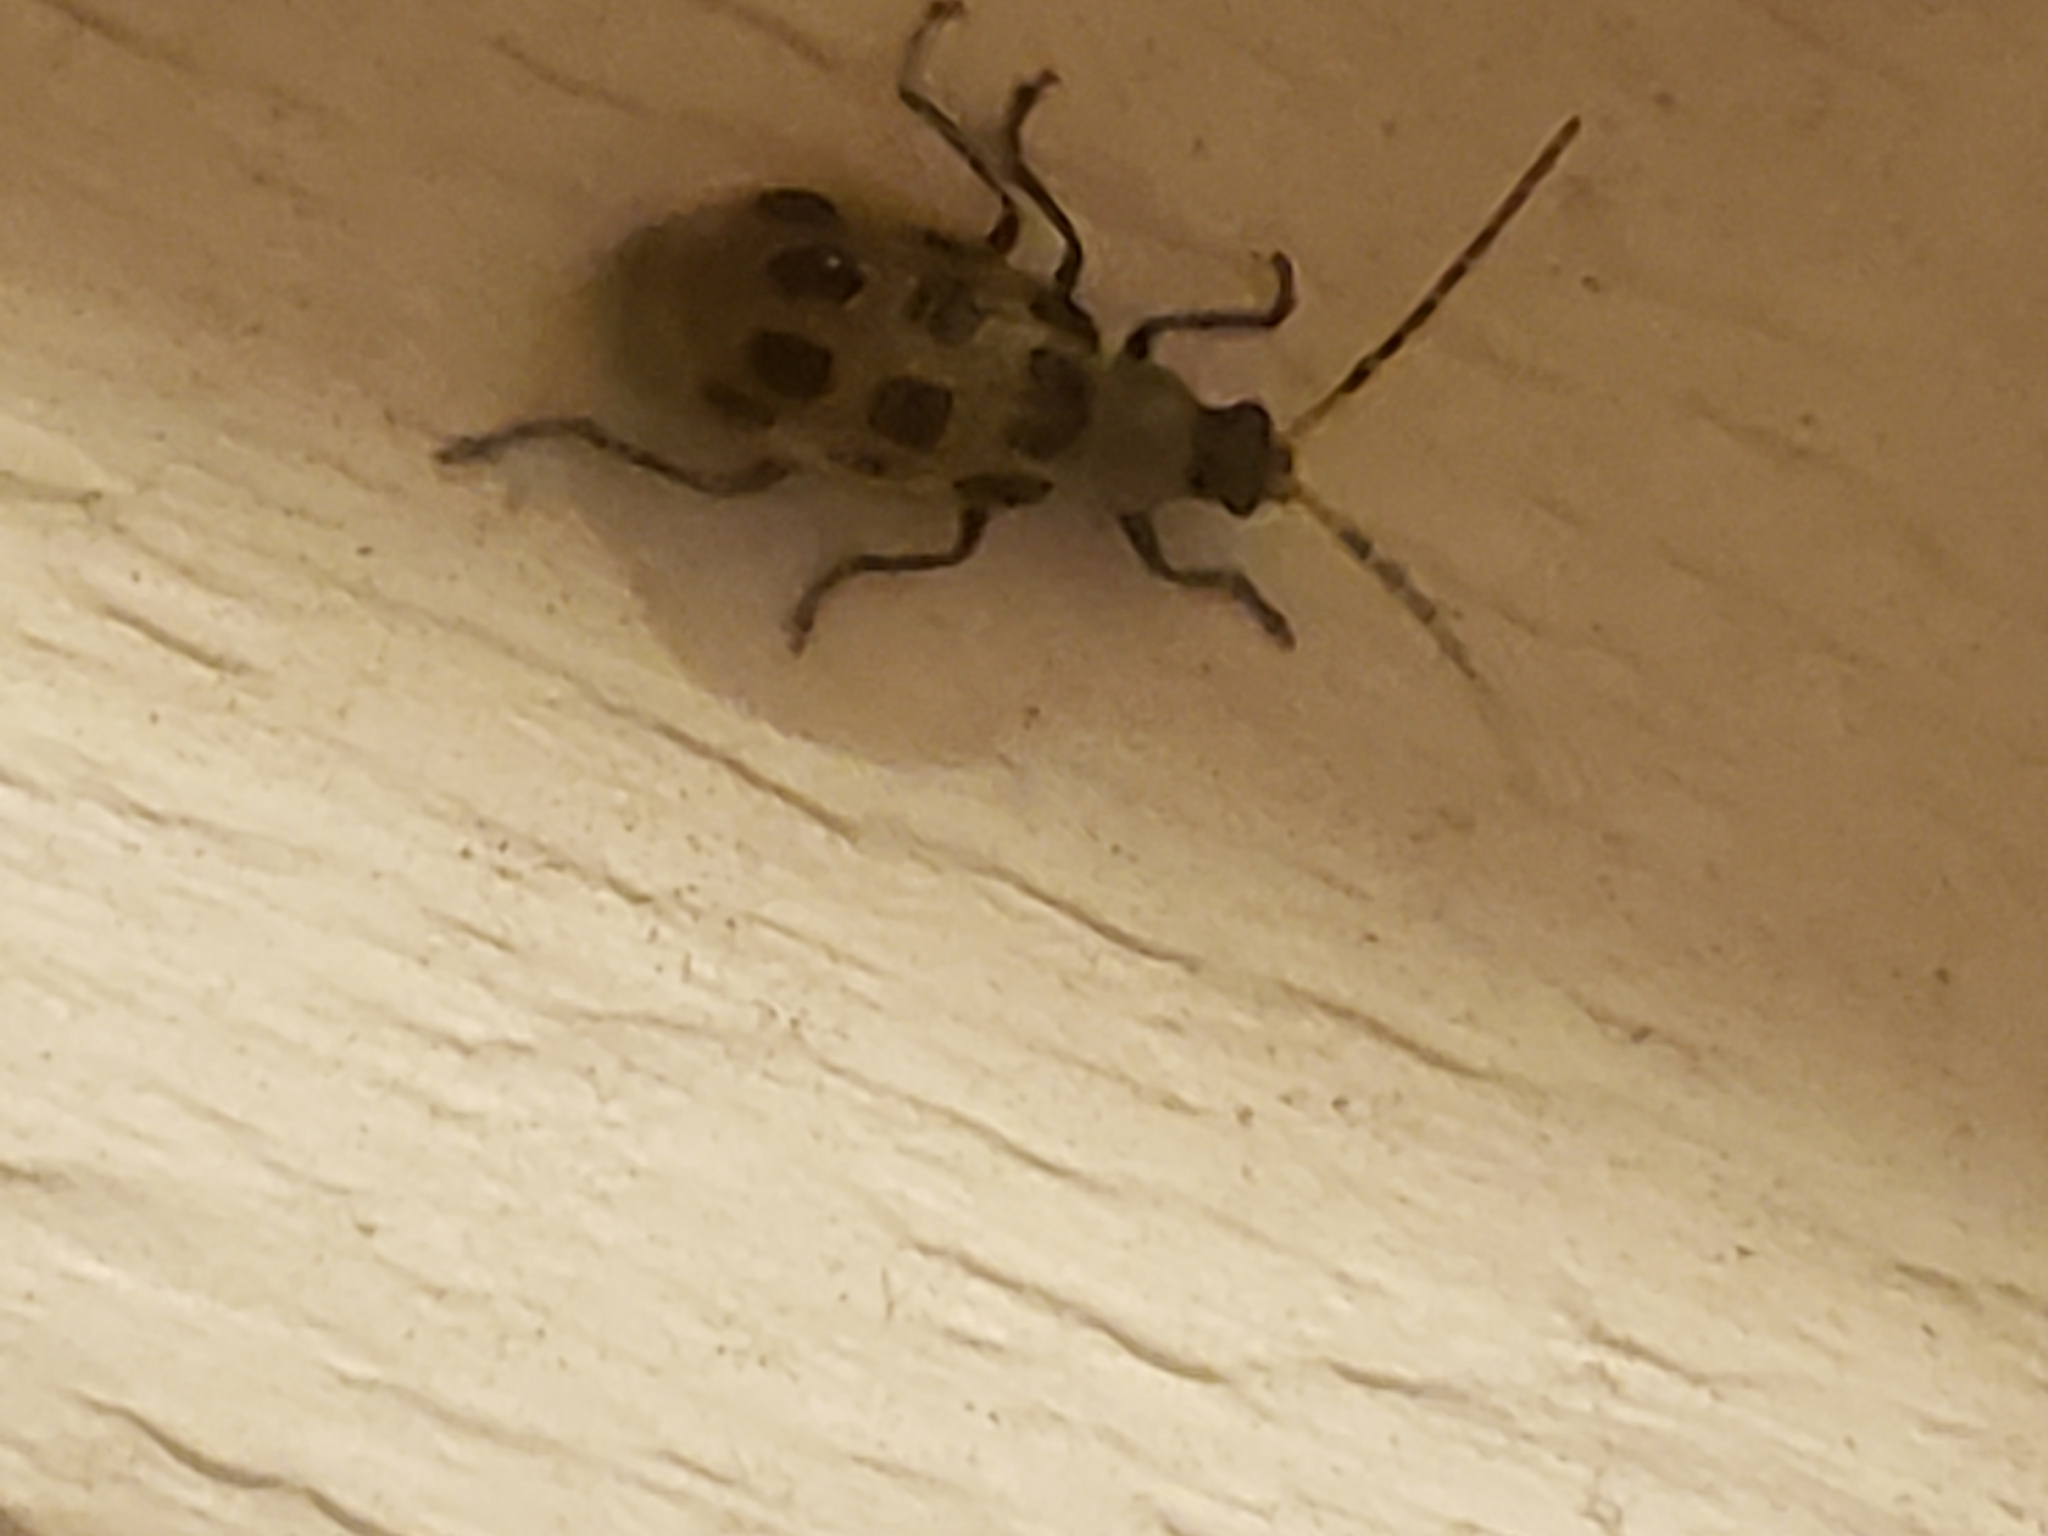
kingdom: Animalia
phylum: Arthropoda
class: Insecta
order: Coleoptera
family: Chrysomelidae
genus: Diabrotica
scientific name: Diabrotica undecimpunctata
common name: Spotted cucumber beetle
